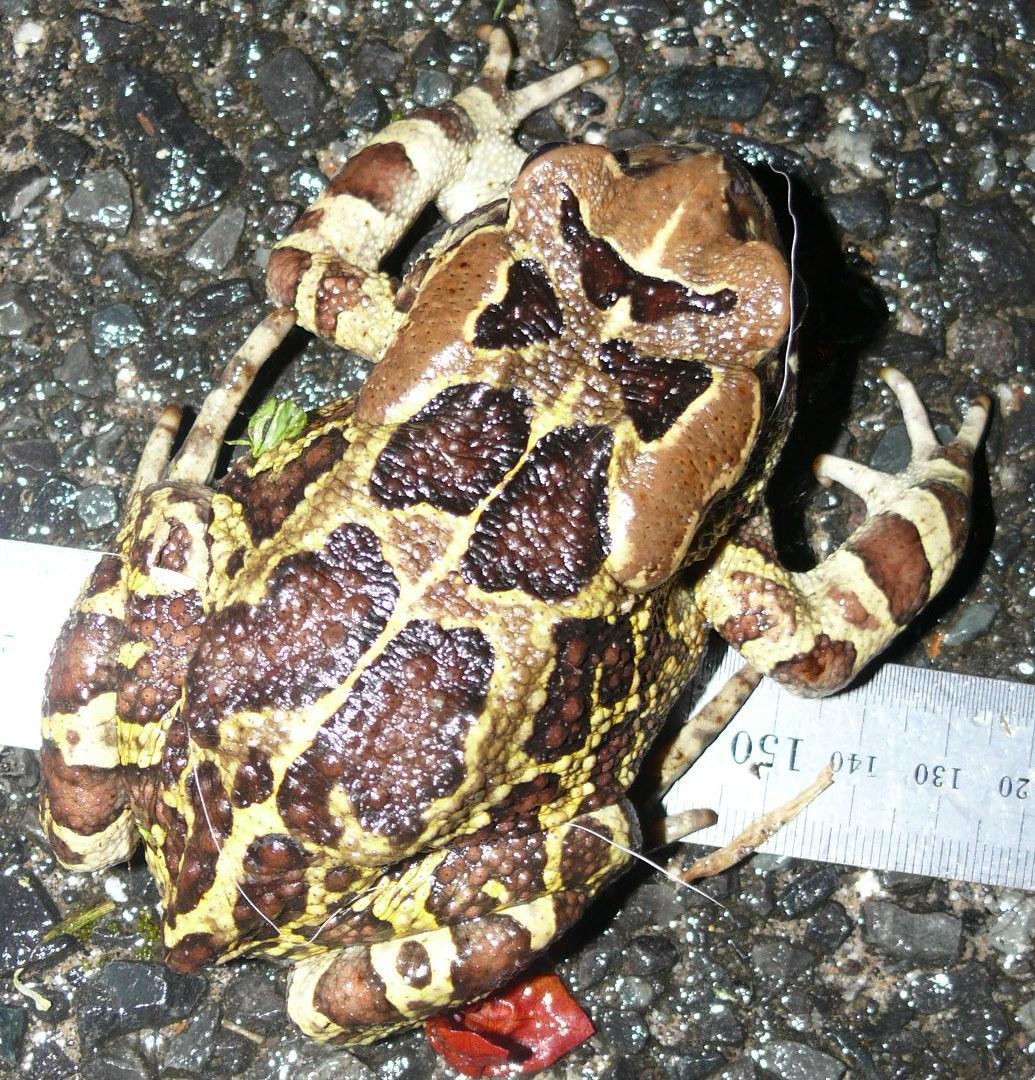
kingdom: Animalia
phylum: Chordata
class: Amphibia
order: Anura
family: Bufonidae
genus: Sclerophrys
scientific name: Sclerophrys pantherina
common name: Panther toad
